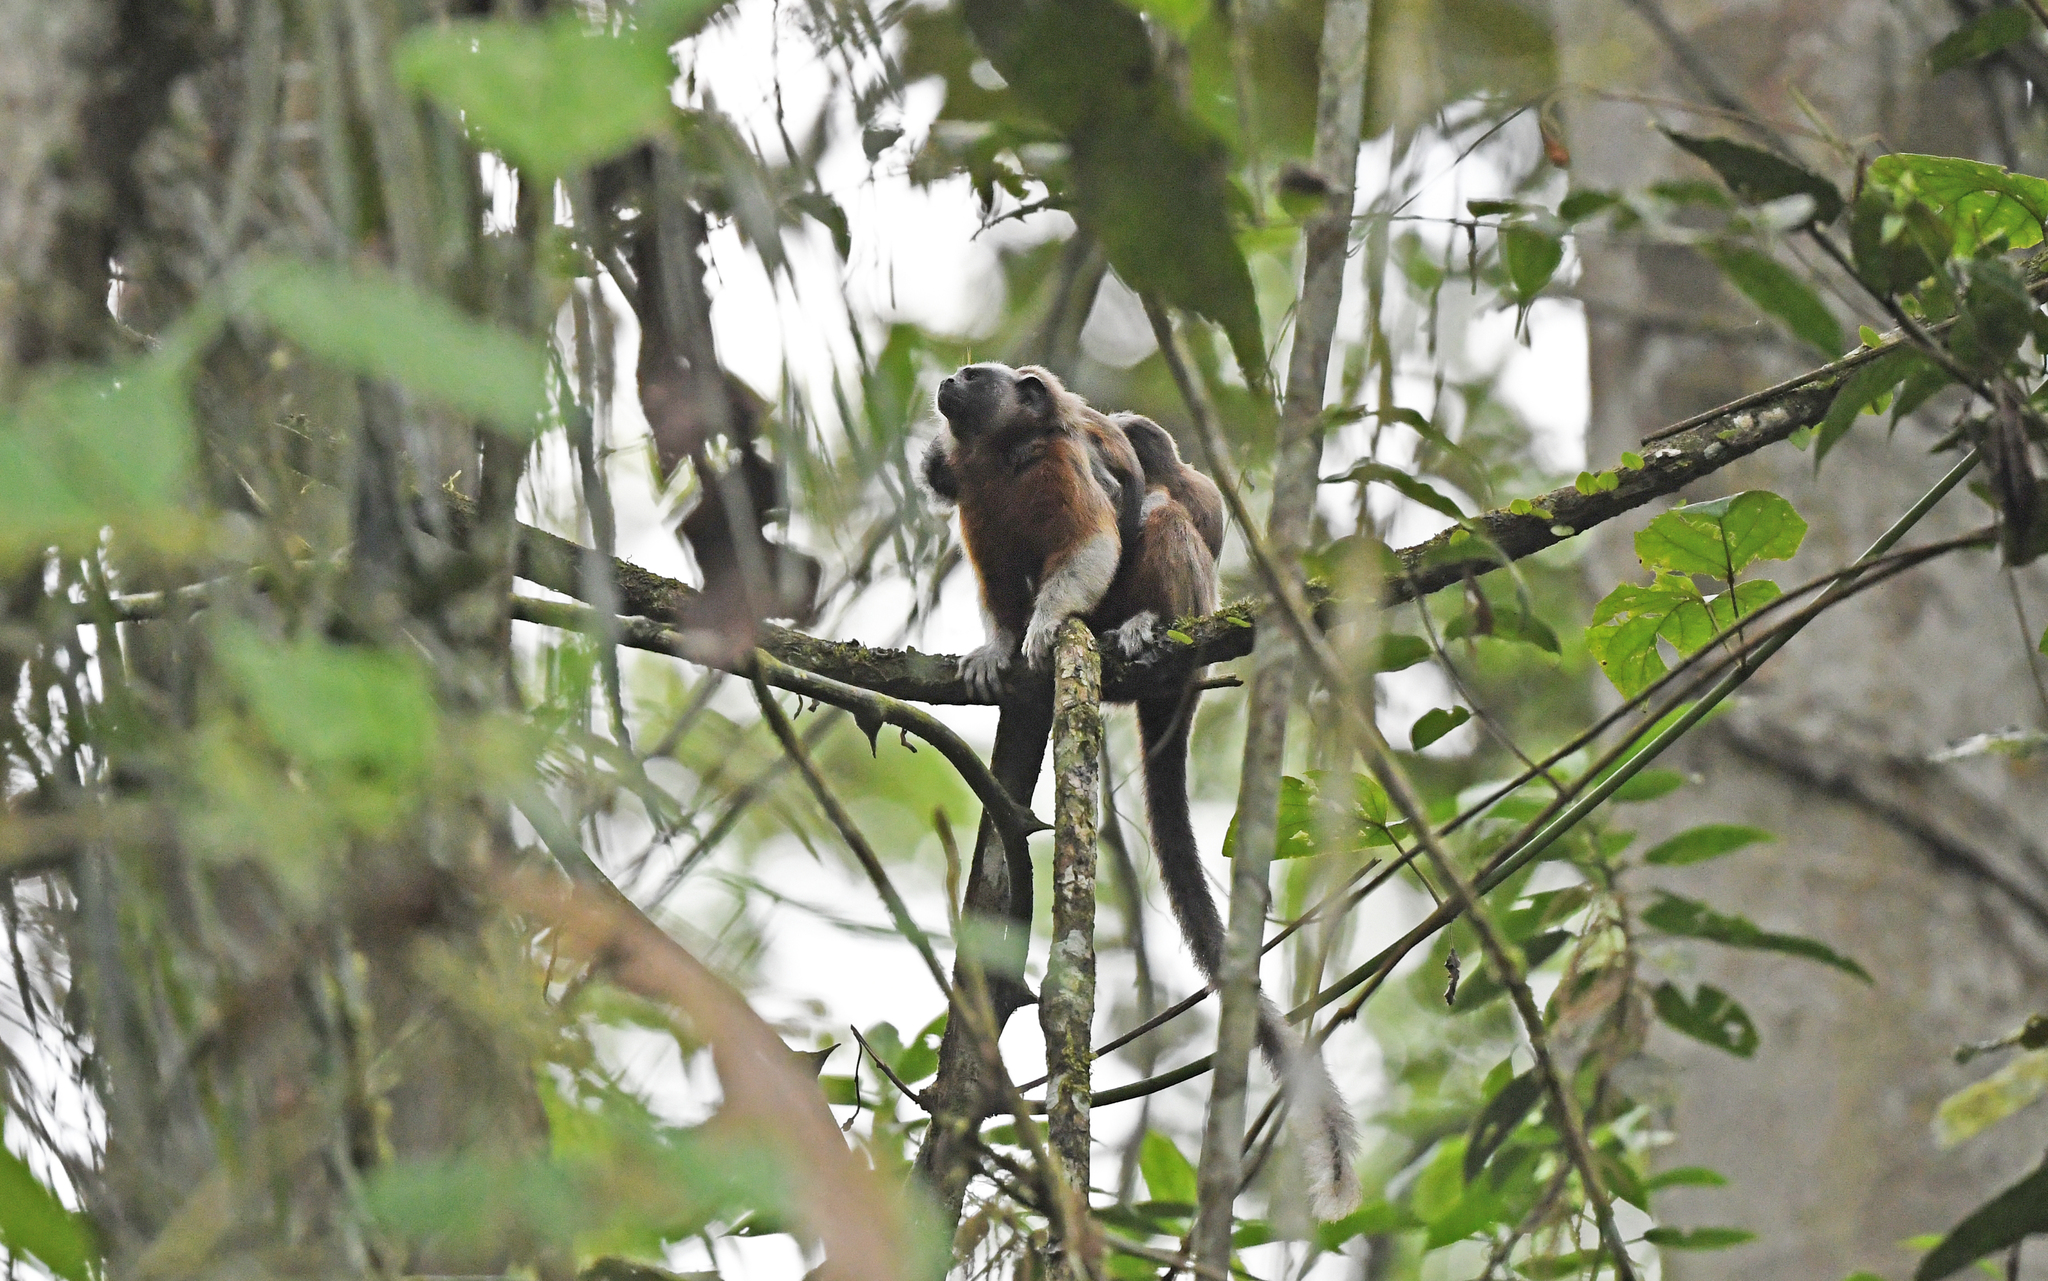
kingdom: Animalia
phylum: Chordata
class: Mammalia
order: Primates
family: Callitrichidae
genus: Saguinus
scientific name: Saguinus leucopus
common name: White-footed tamarin
